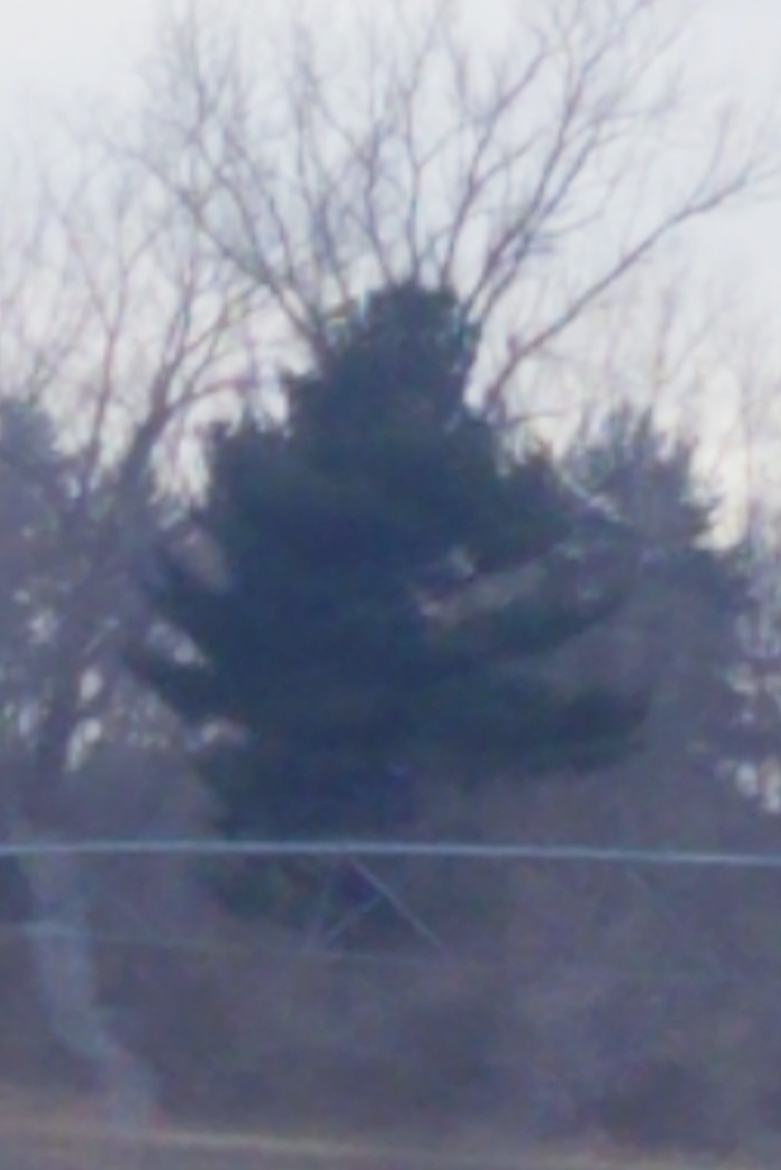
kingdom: Plantae
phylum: Tracheophyta
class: Pinopsida
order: Pinales
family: Pinaceae
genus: Pinus
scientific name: Pinus strobus
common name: Weymouth pine
